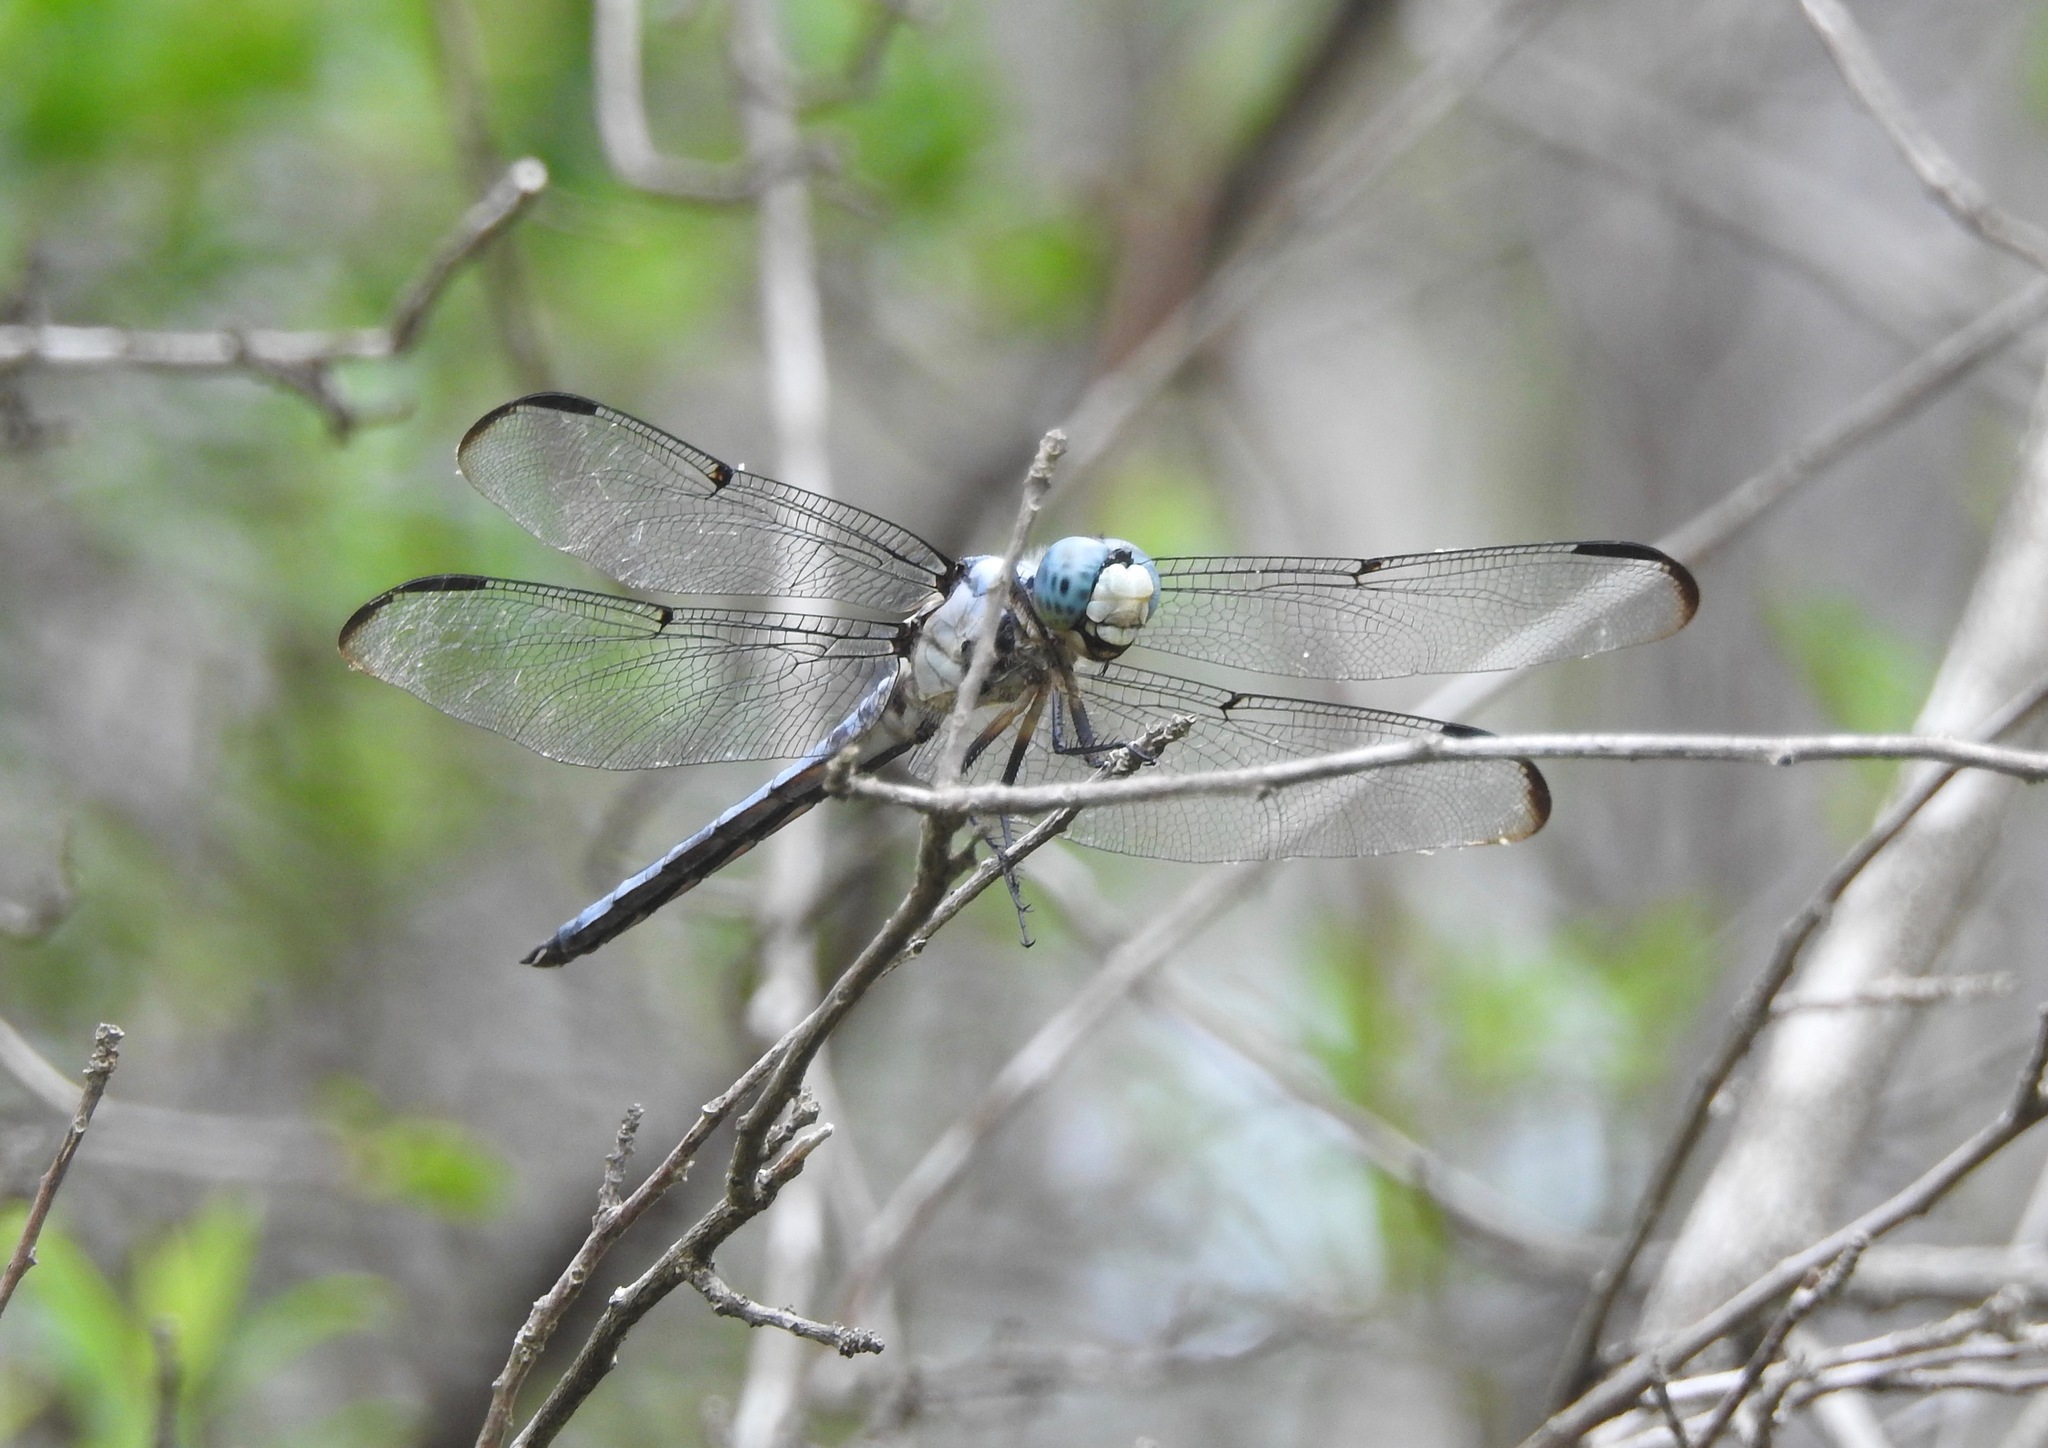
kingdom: Animalia
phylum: Arthropoda
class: Insecta
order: Odonata
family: Libellulidae
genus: Libellula
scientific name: Libellula vibrans
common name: Great blue skimmer
